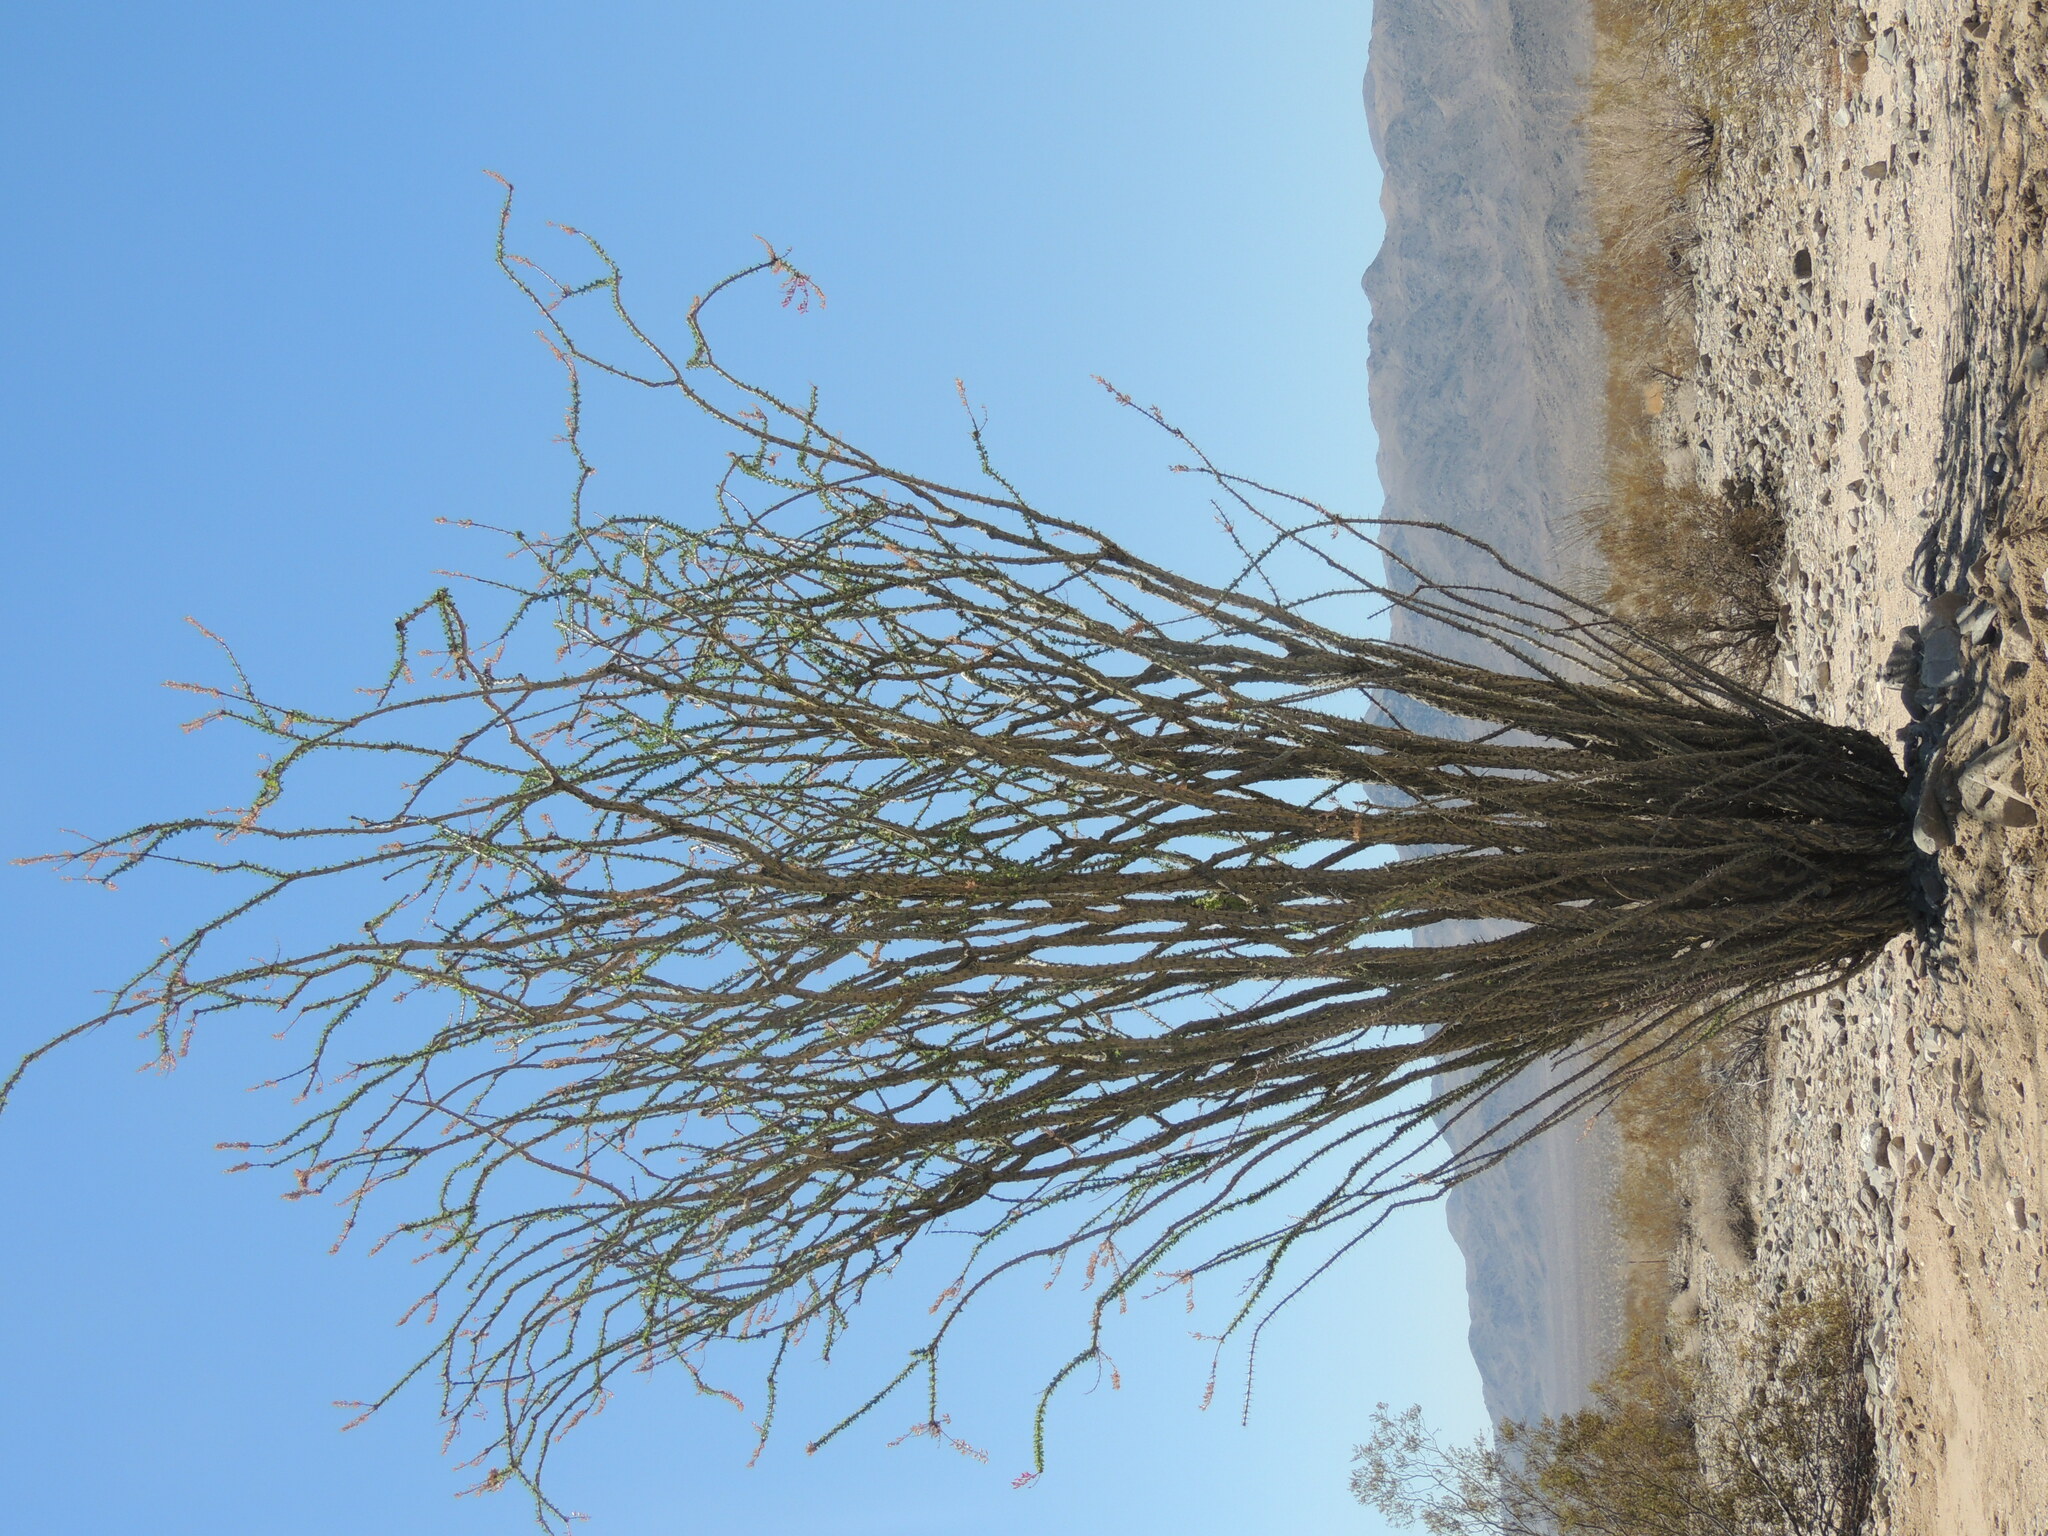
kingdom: Plantae
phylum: Tracheophyta
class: Magnoliopsida
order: Ericales
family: Fouquieriaceae
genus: Fouquieria
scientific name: Fouquieria splendens
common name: Vine-cactus
